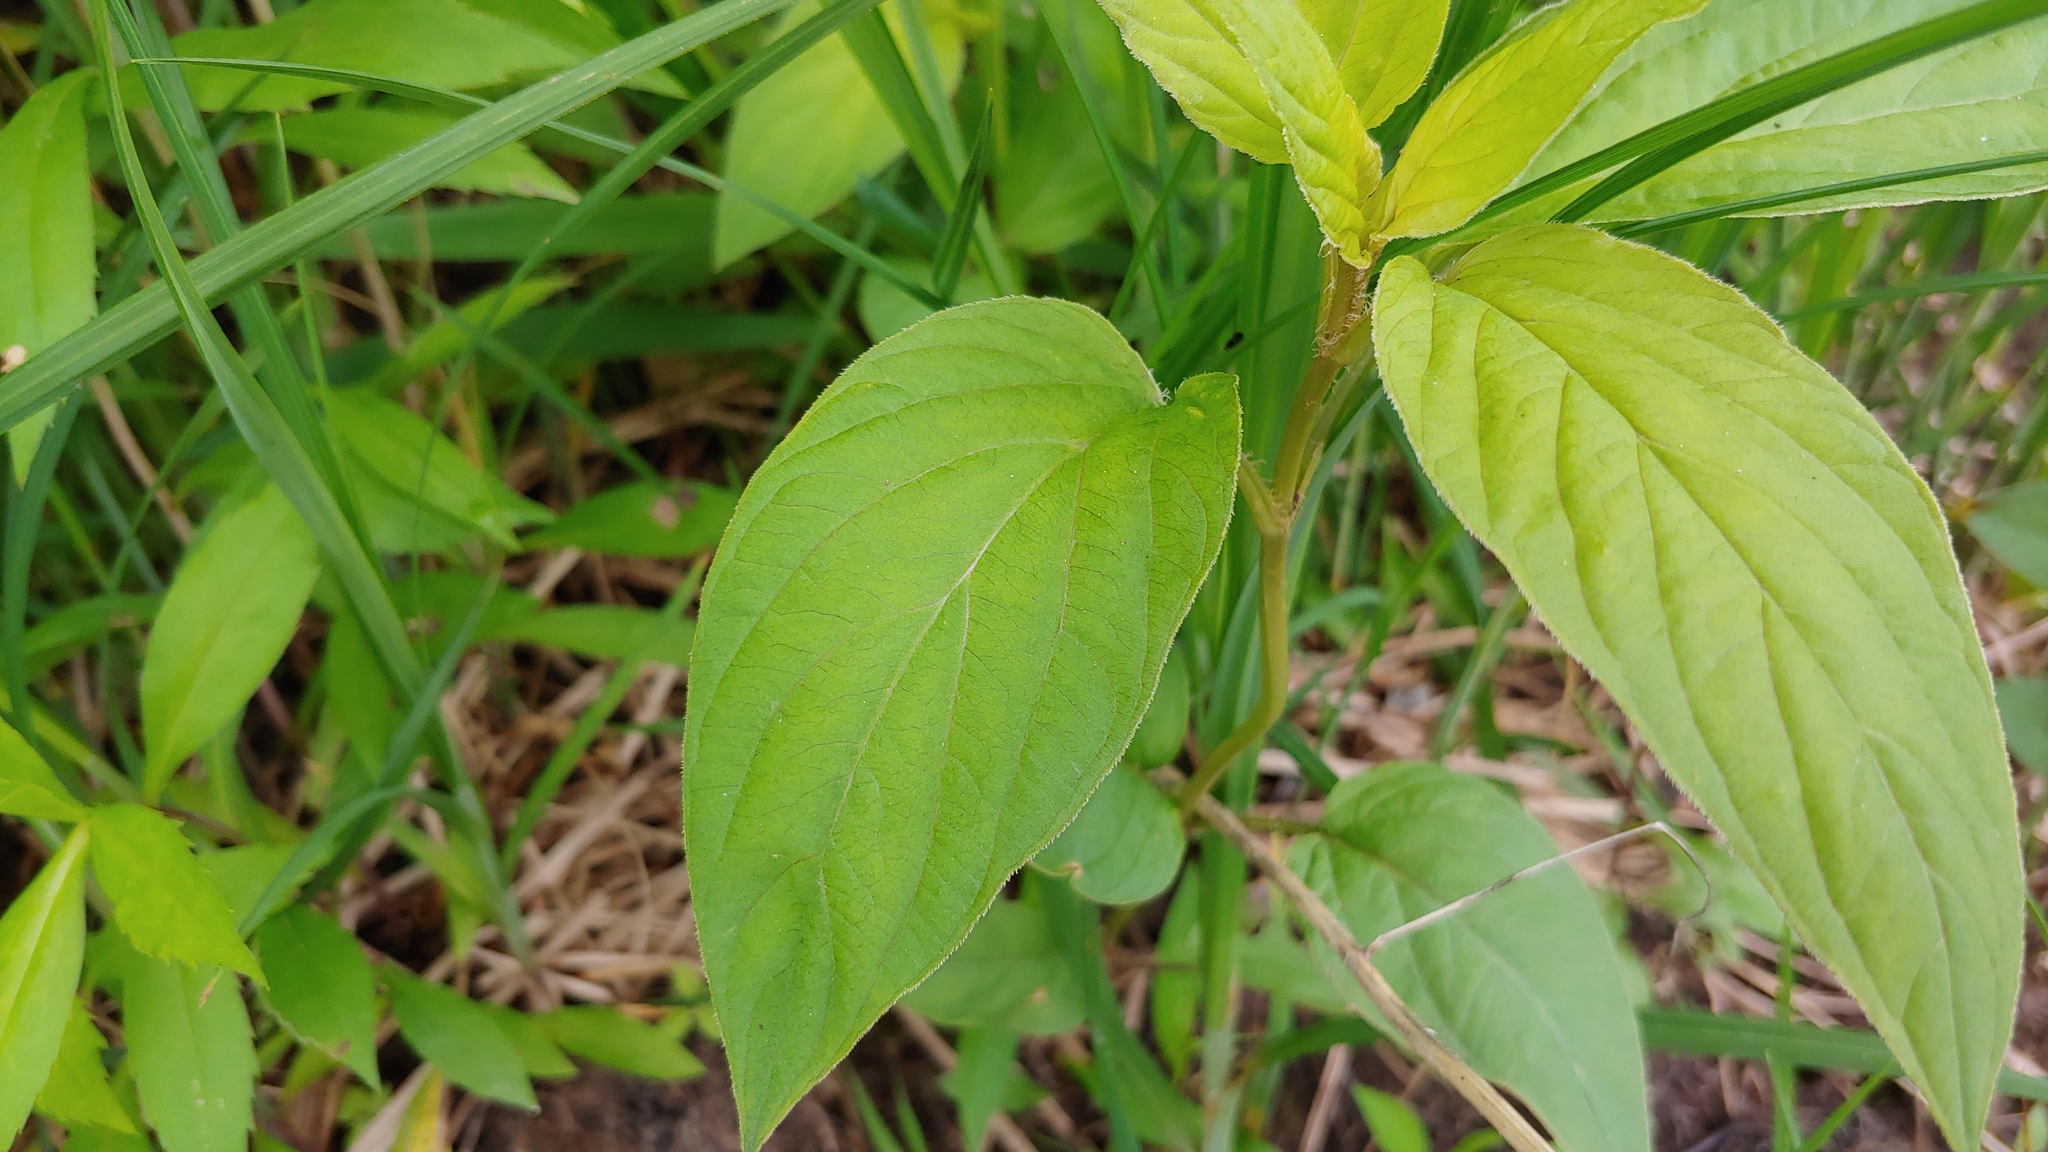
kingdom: Plantae
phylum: Tracheophyta
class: Magnoliopsida
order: Ericales
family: Primulaceae
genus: Lysimachia
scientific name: Lysimachia ciliata
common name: Fringed loosestrife
